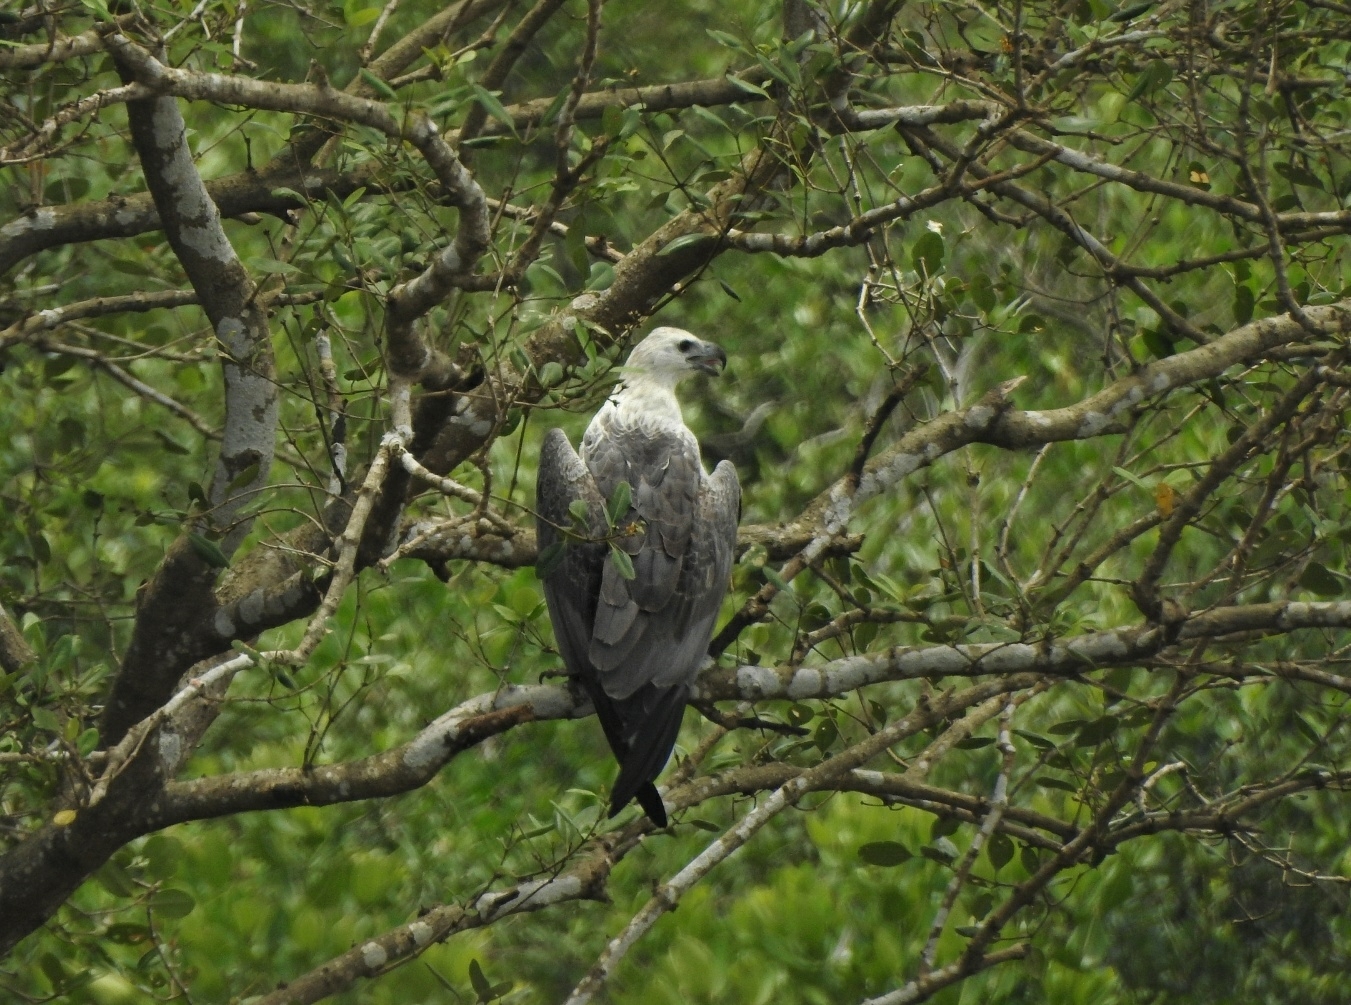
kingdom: Animalia
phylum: Chordata
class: Aves
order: Accipitriformes
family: Accipitridae
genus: Haliaeetus
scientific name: Haliaeetus leucogaster
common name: White-bellied sea eagle
